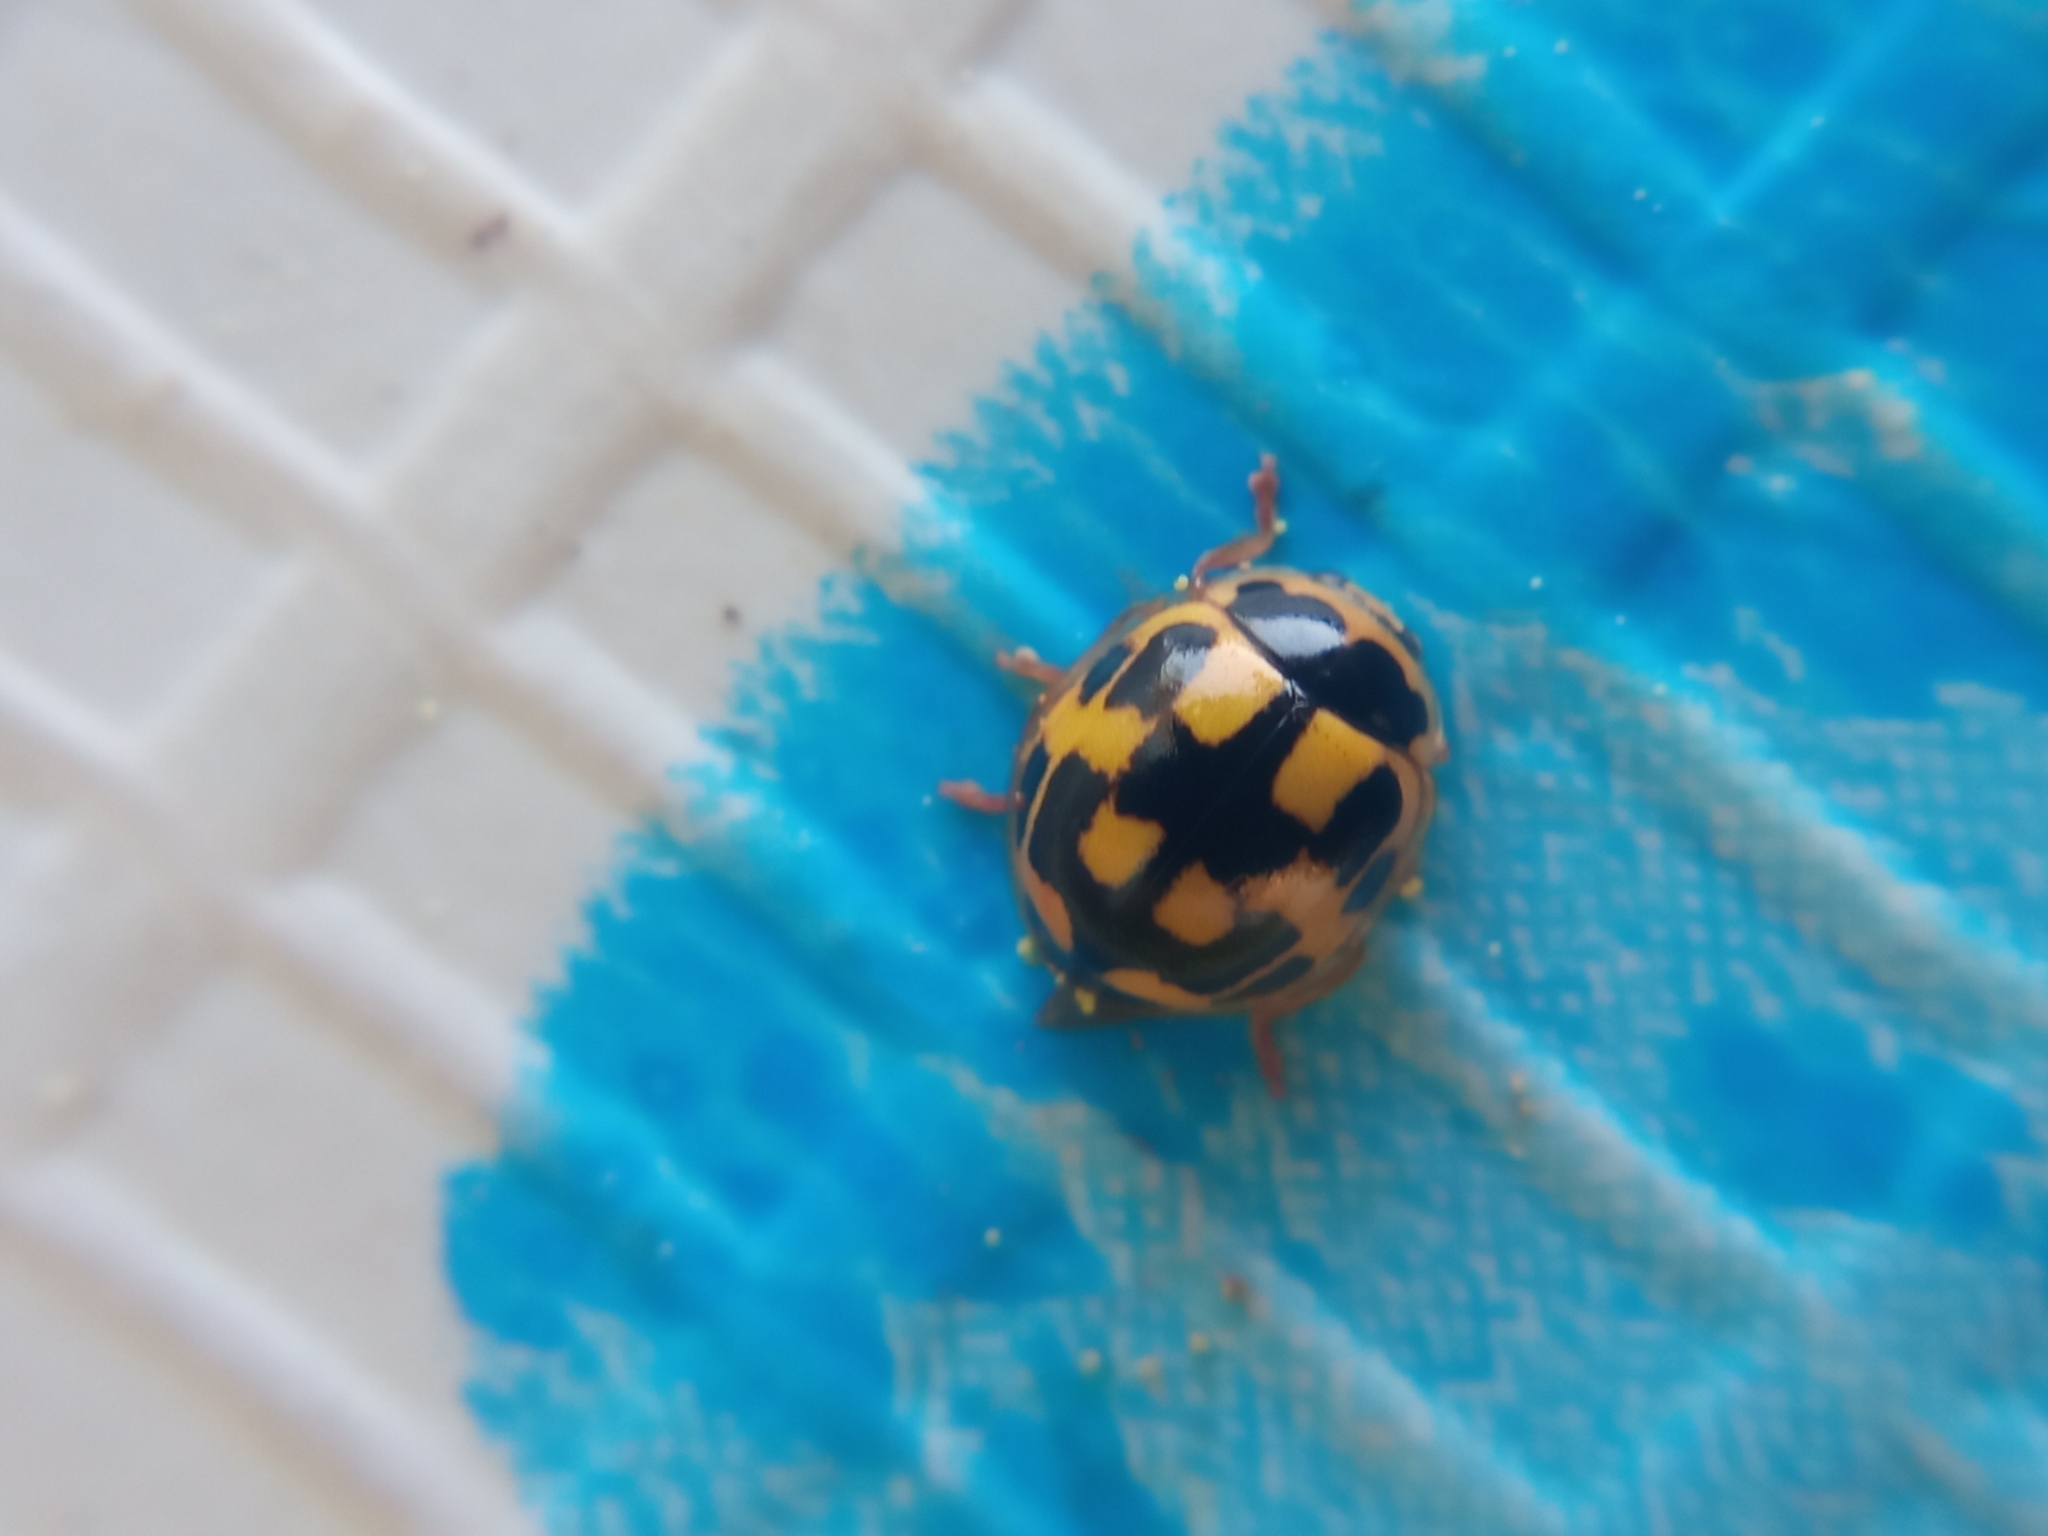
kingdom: Animalia
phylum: Arthropoda
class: Insecta
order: Coleoptera
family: Coccinellidae
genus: Propylaea
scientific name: Propylaea quatuordecimpunctata
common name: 14-spotted ladybird beetle
